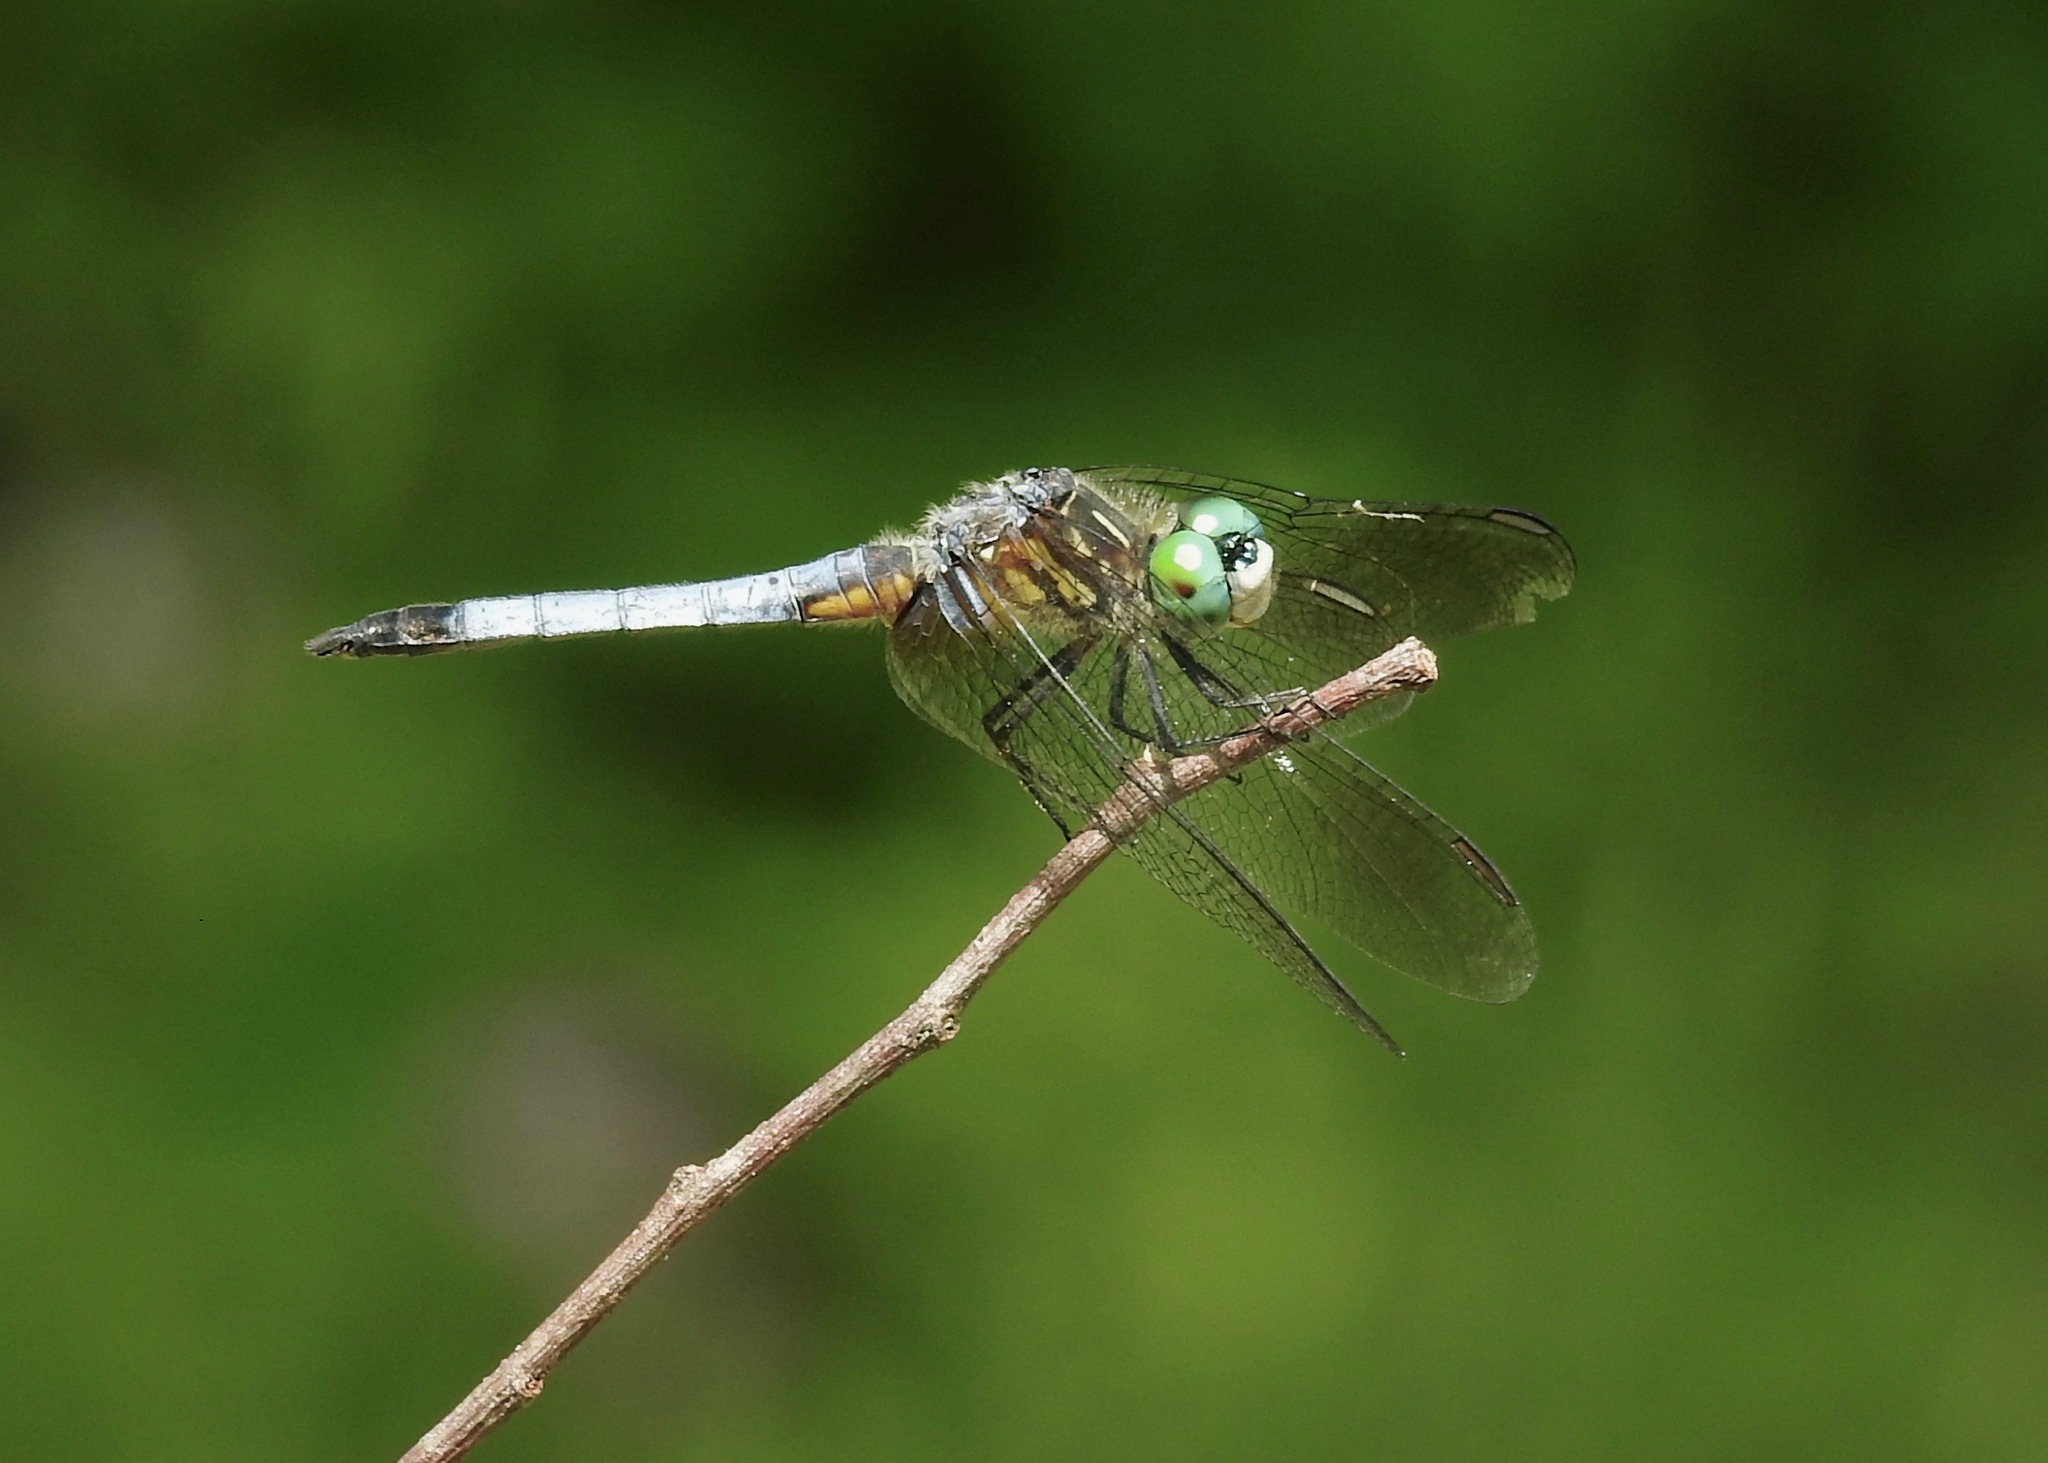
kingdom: Animalia
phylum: Arthropoda
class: Insecta
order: Odonata
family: Libellulidae
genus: Pachydiplax
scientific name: Pachydiplax longipennis
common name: Blue dasher
